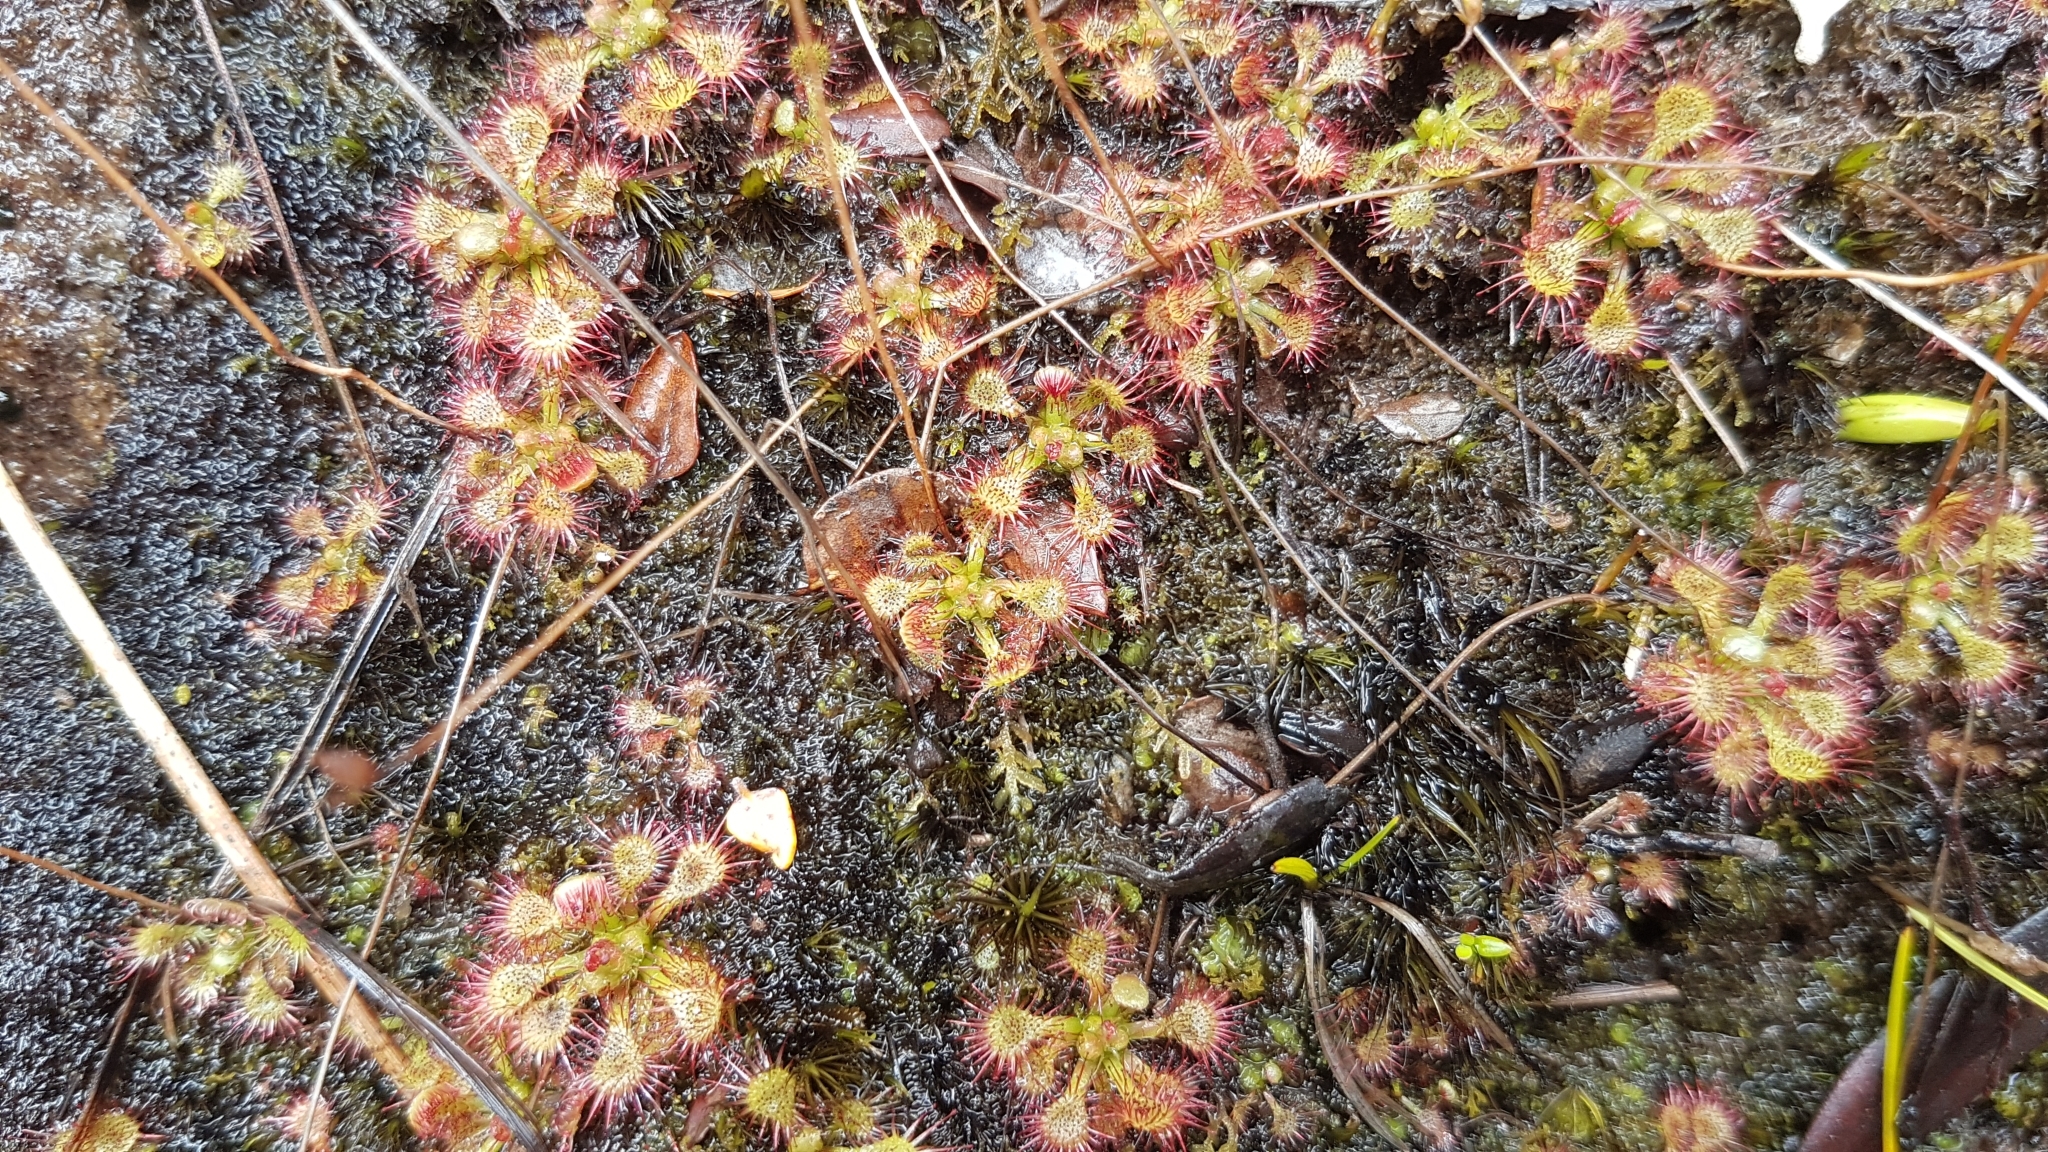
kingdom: Plantae
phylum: Tracheophyta
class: Magnoliopsida
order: Caryophyllales
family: Droseraceae
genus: Drosera
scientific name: Drosera spatulata
